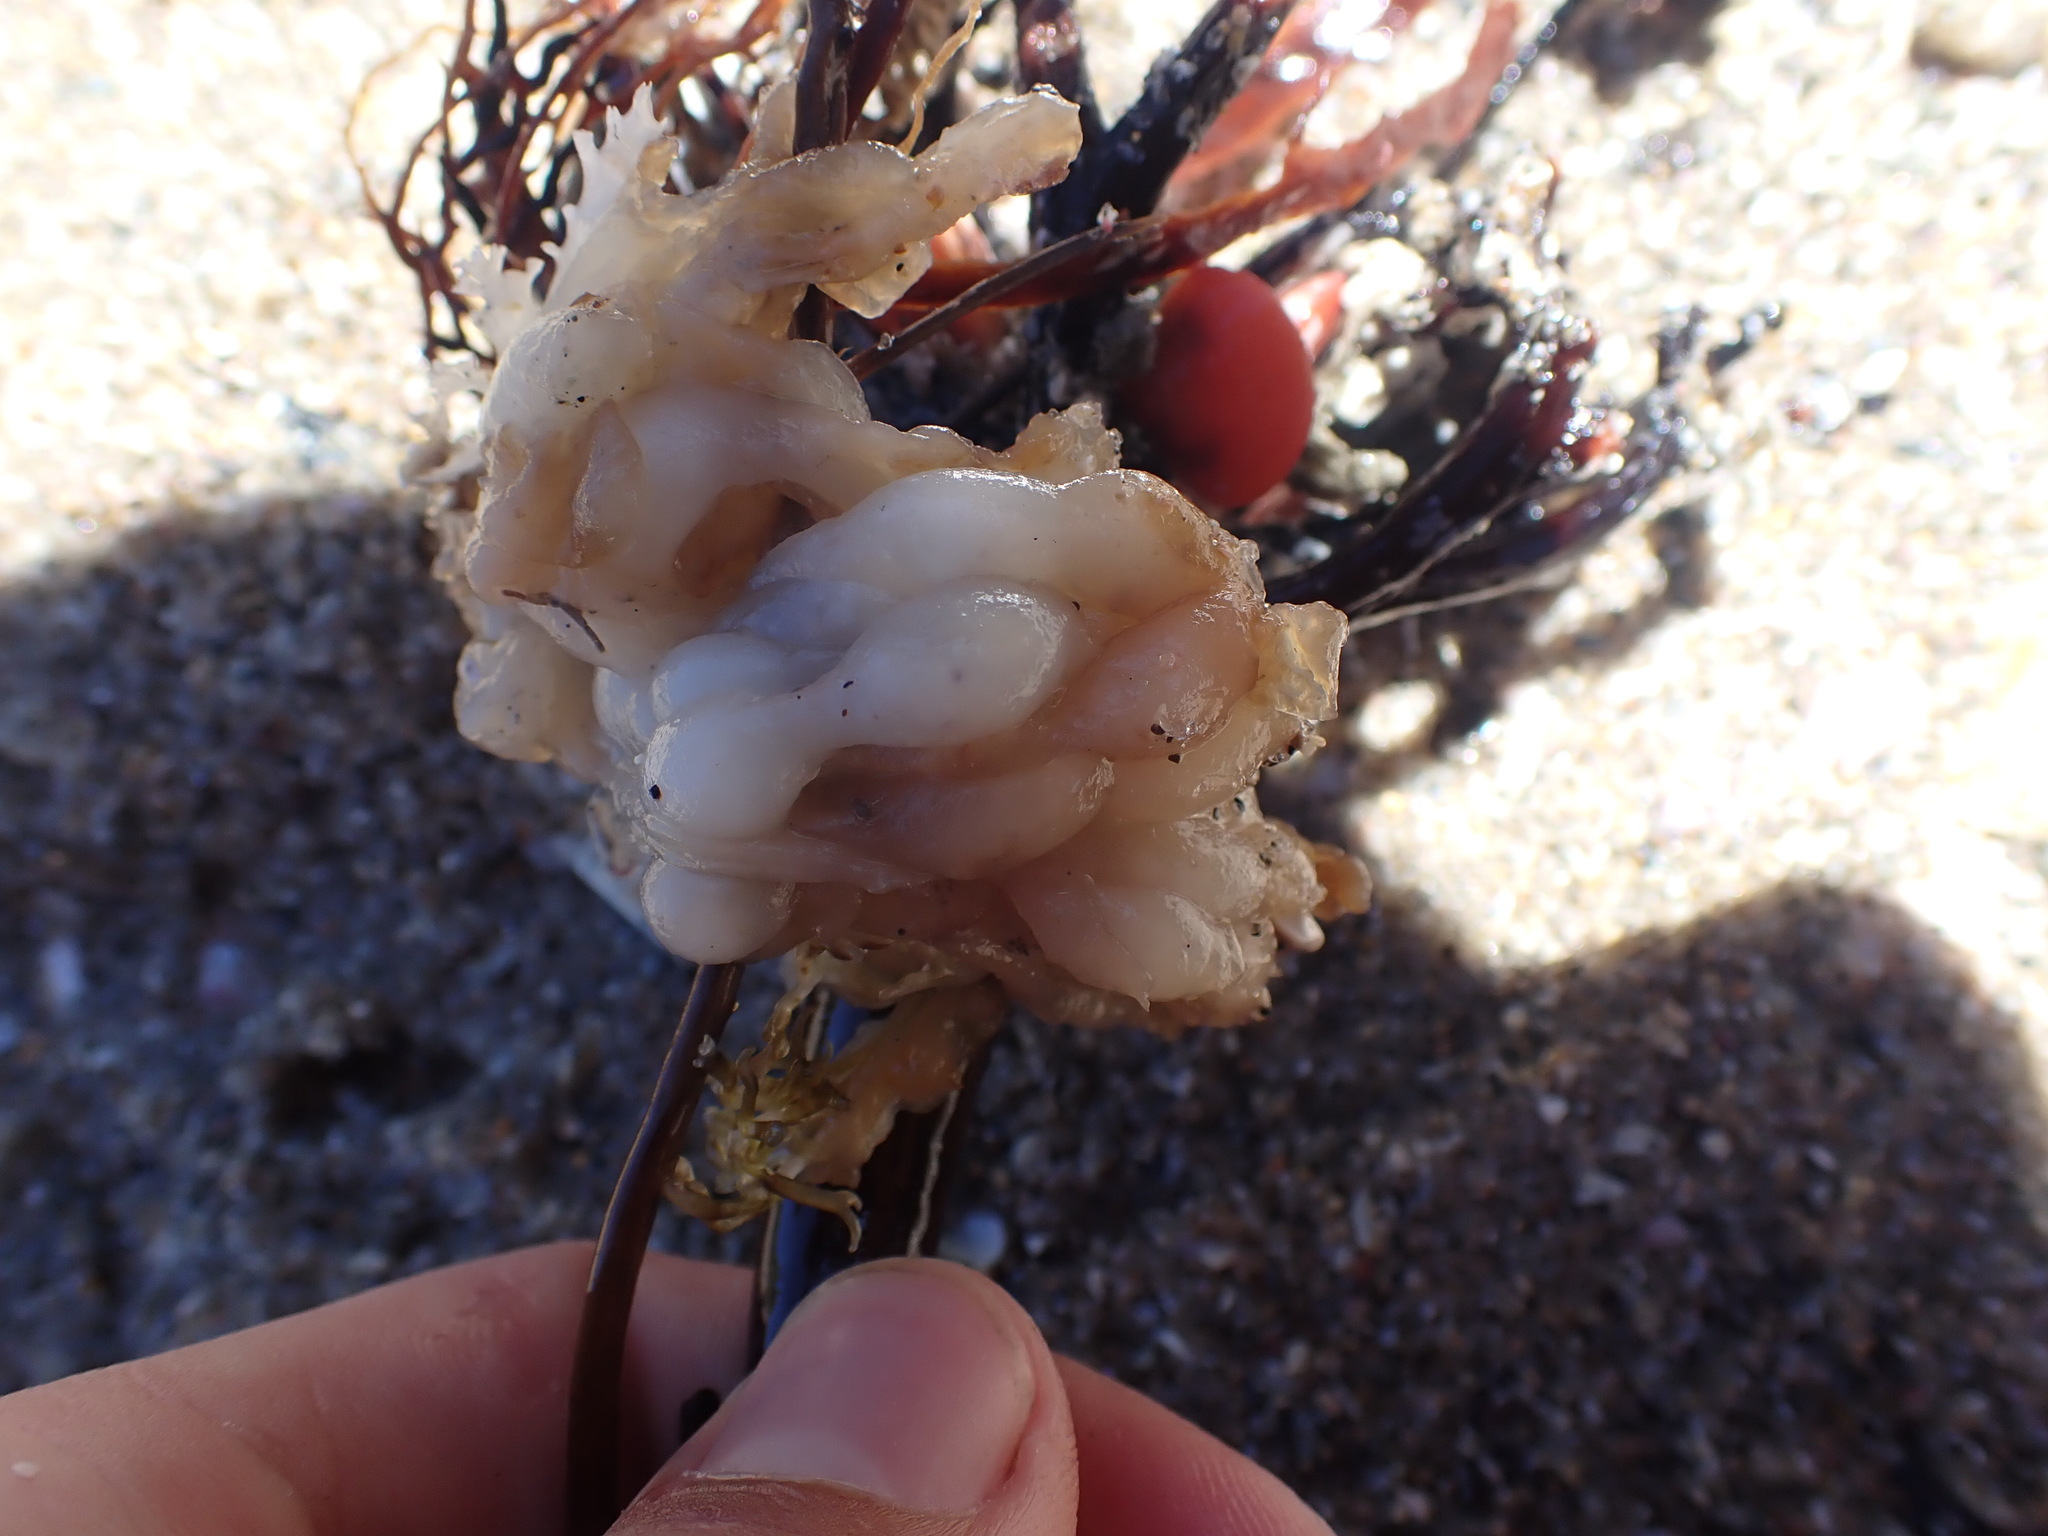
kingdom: Animalia
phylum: Mollusca
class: Cephalopoda
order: Myopsida
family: Loliginidae
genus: Sepioteuthis
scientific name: Sepioteuthis australis
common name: Southern reef squid
